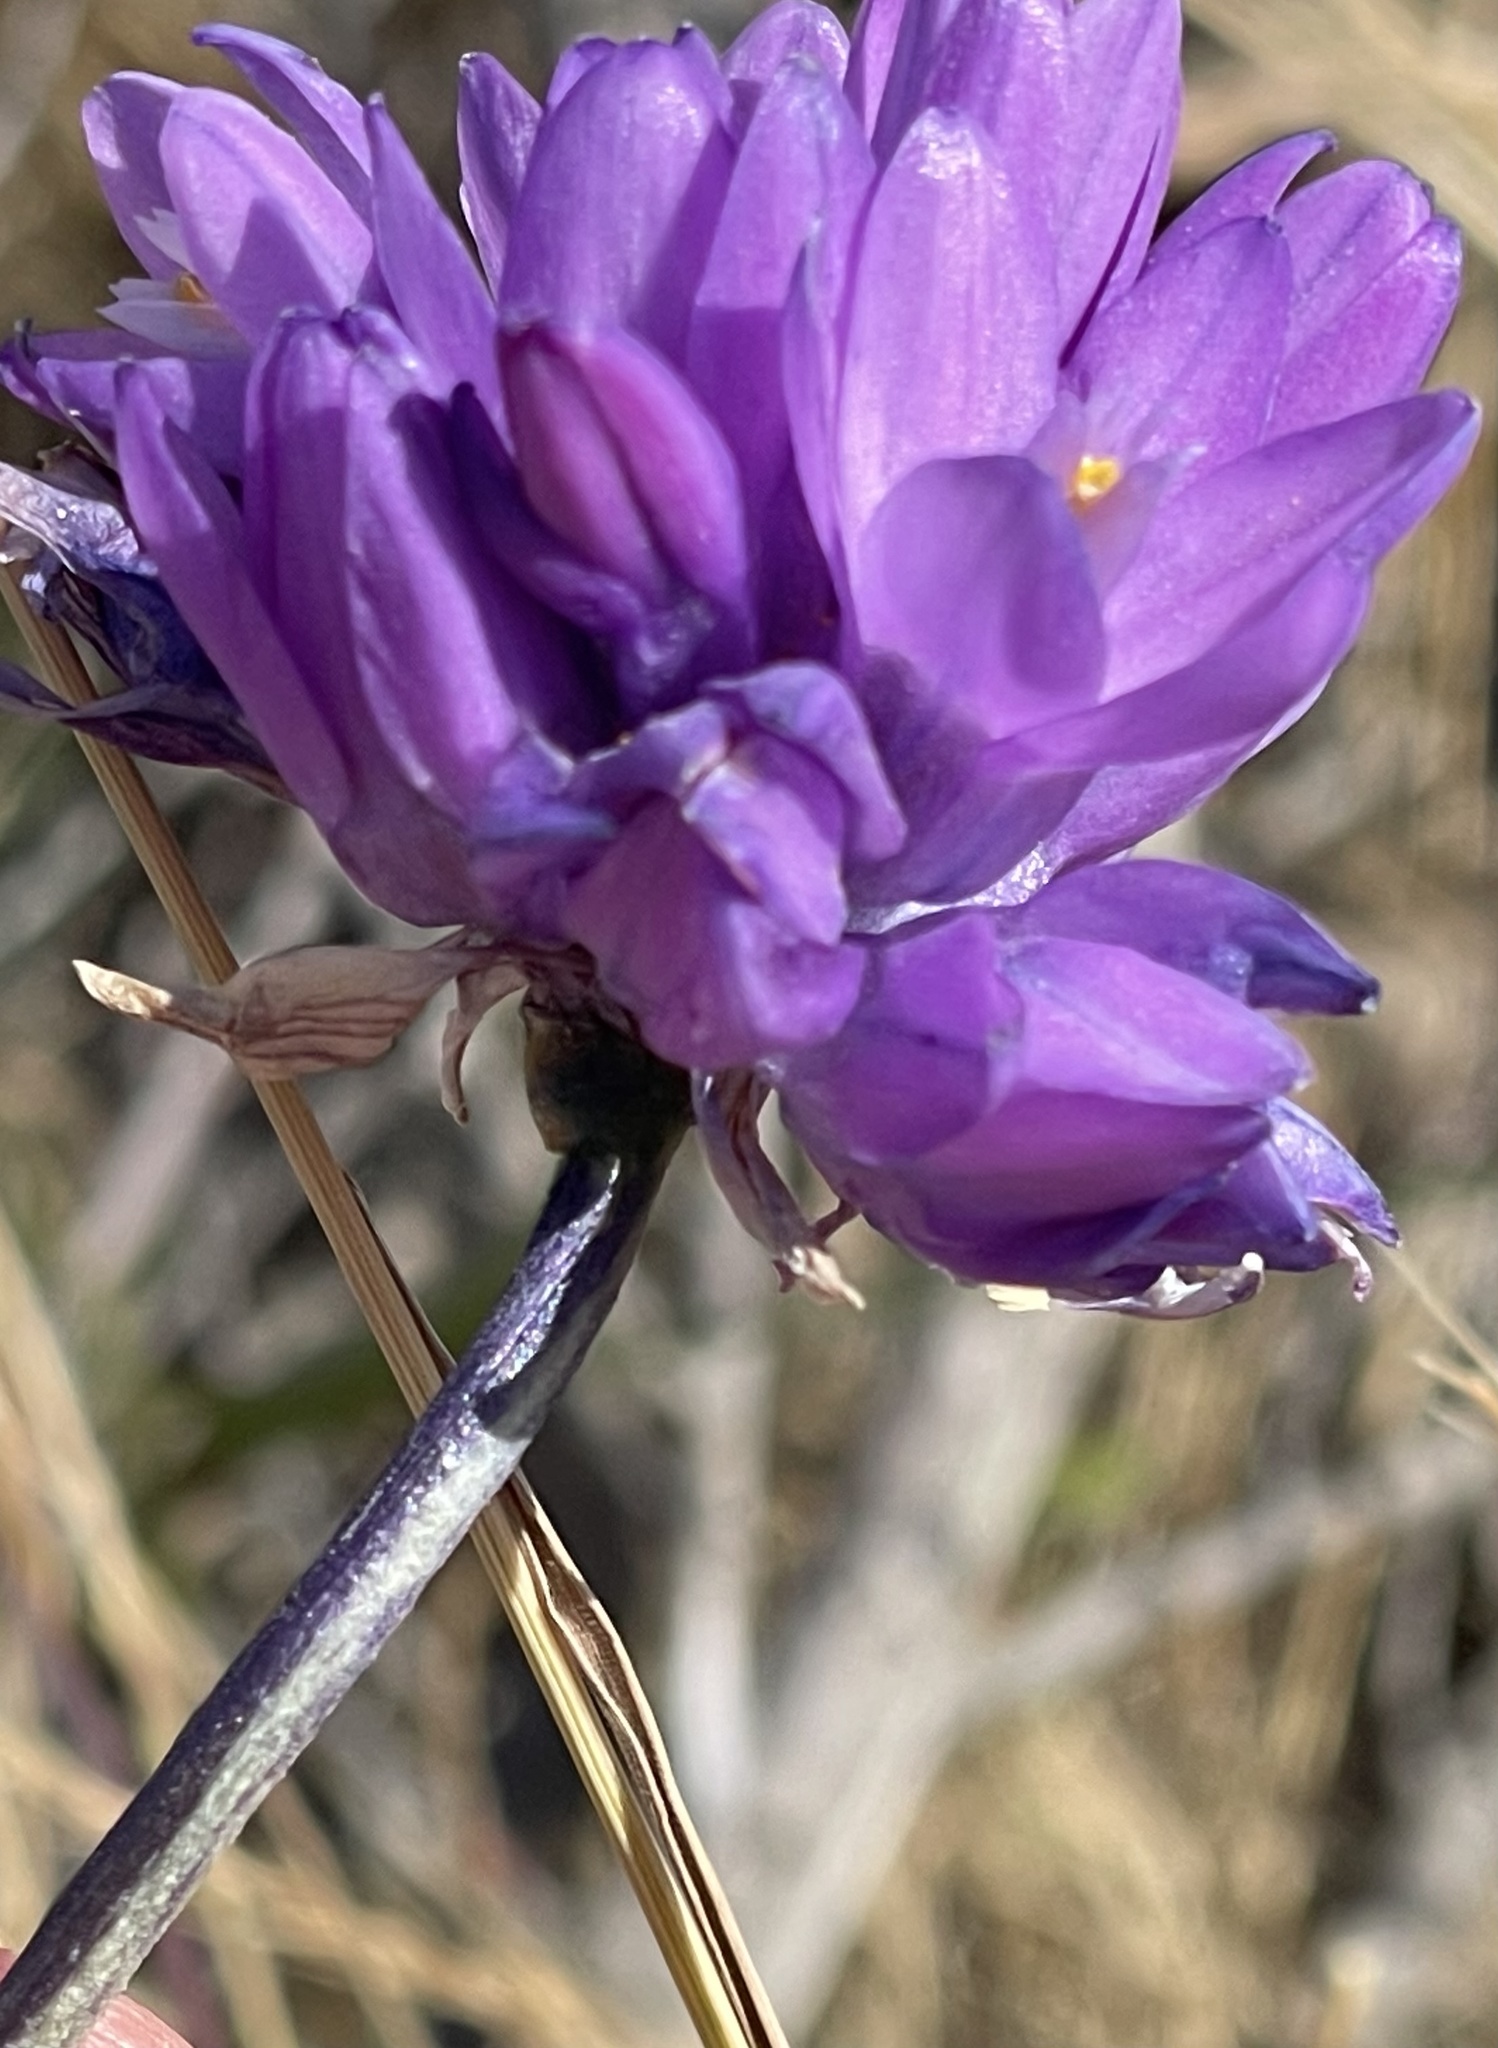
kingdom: Plantae
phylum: Tracheophyta
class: Liliopsida
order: Asparagales
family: Asparagaceae
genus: Dipterostemon
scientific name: Dipterostemon capitatus
